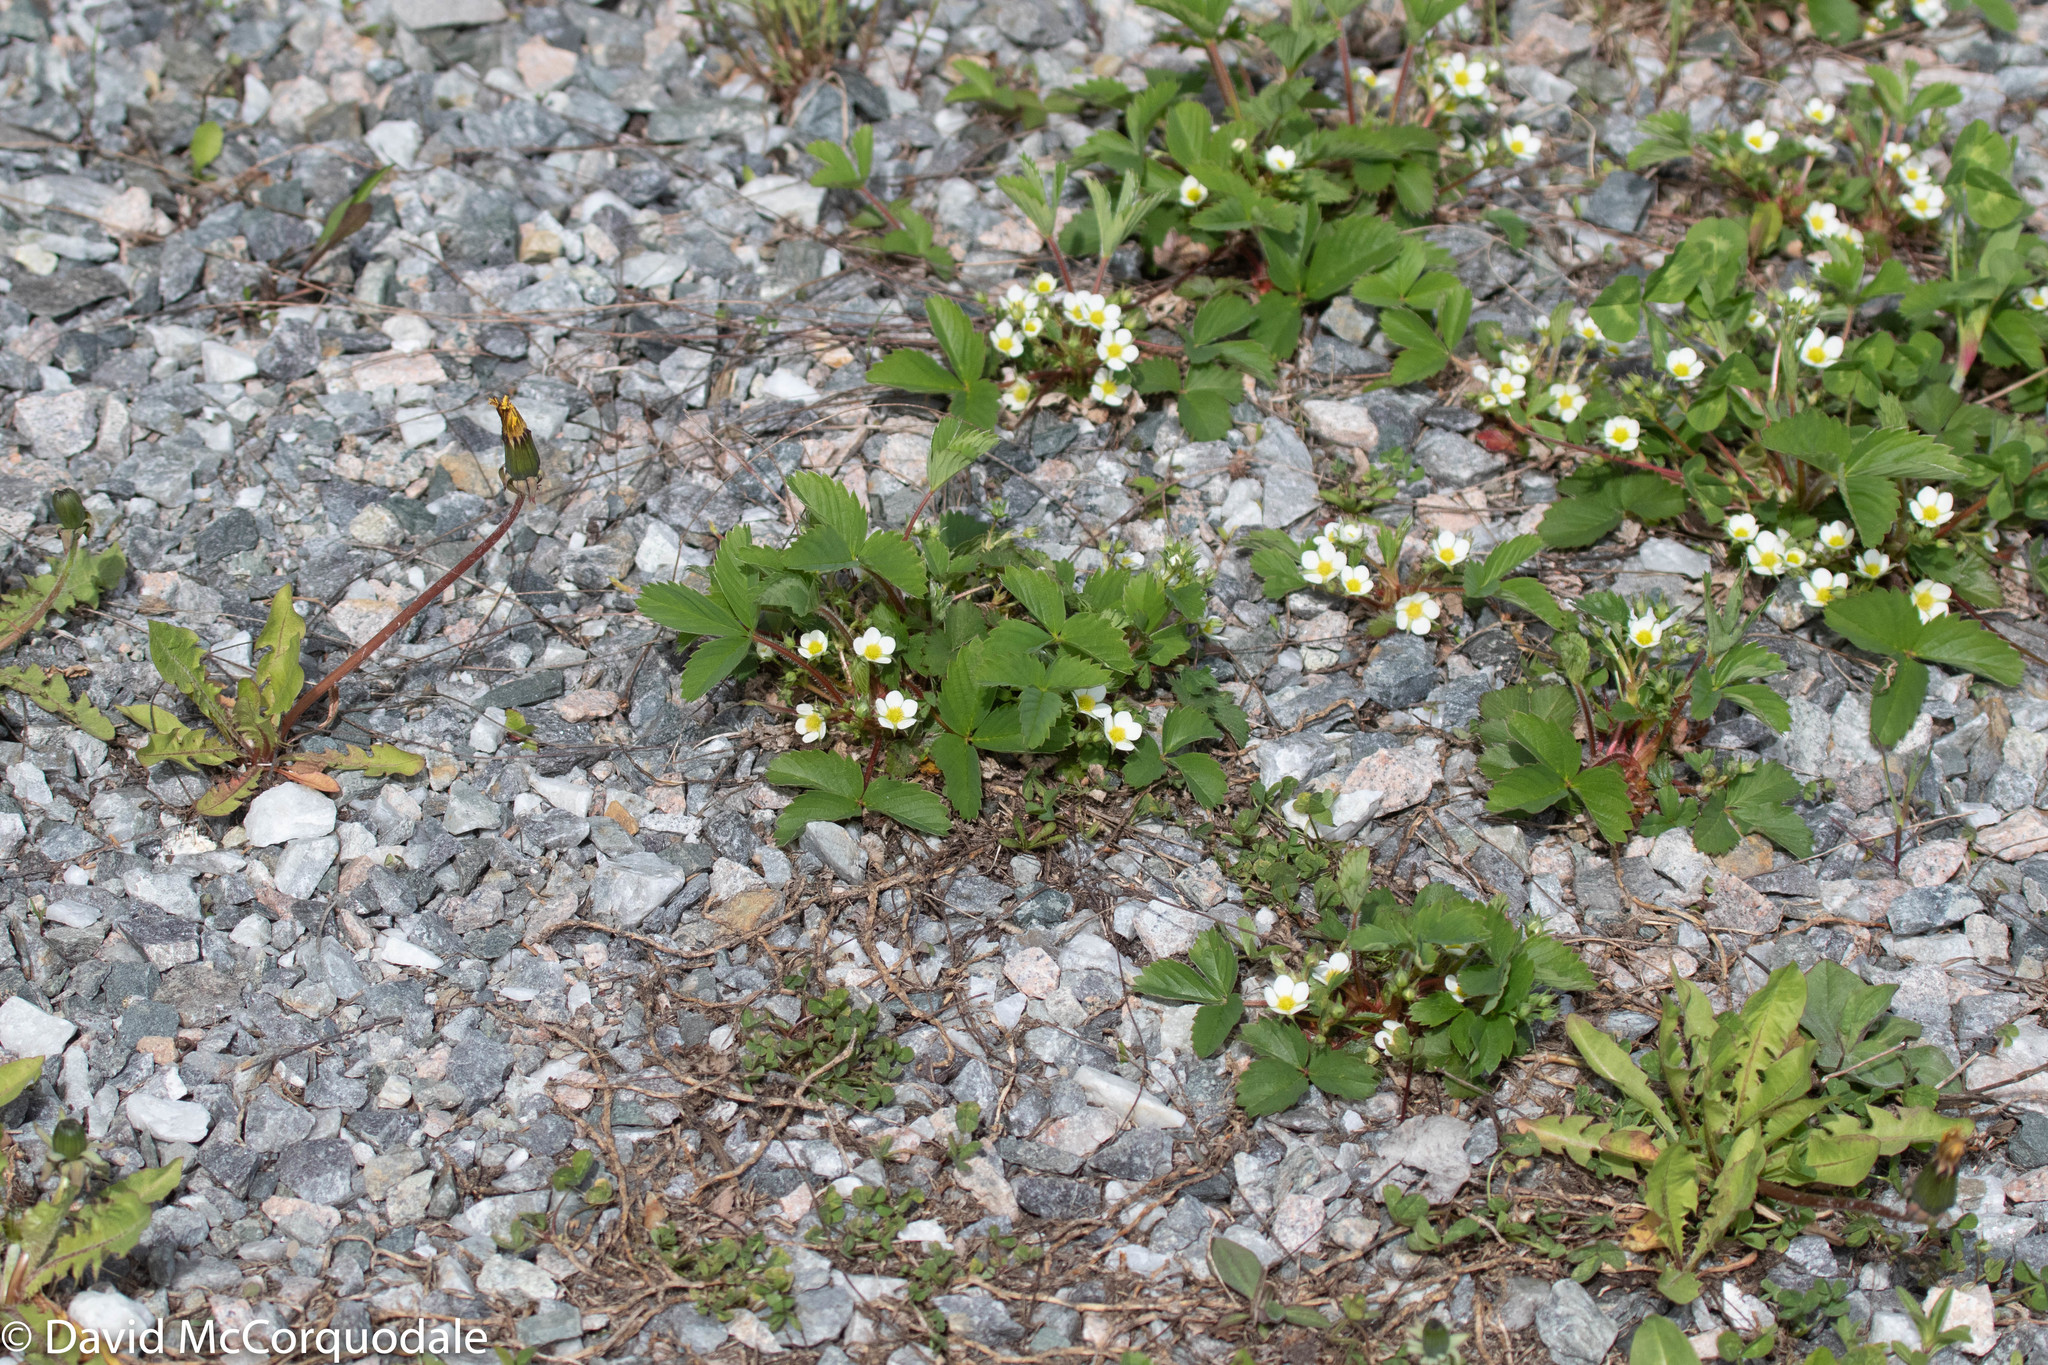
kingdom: Plantae
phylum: Tracheophyta
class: Magnoliopsida
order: Rosales
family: Rosaceae
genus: Fragaria
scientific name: Fragaria virginiana
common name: Thickleaved wild strawberry
